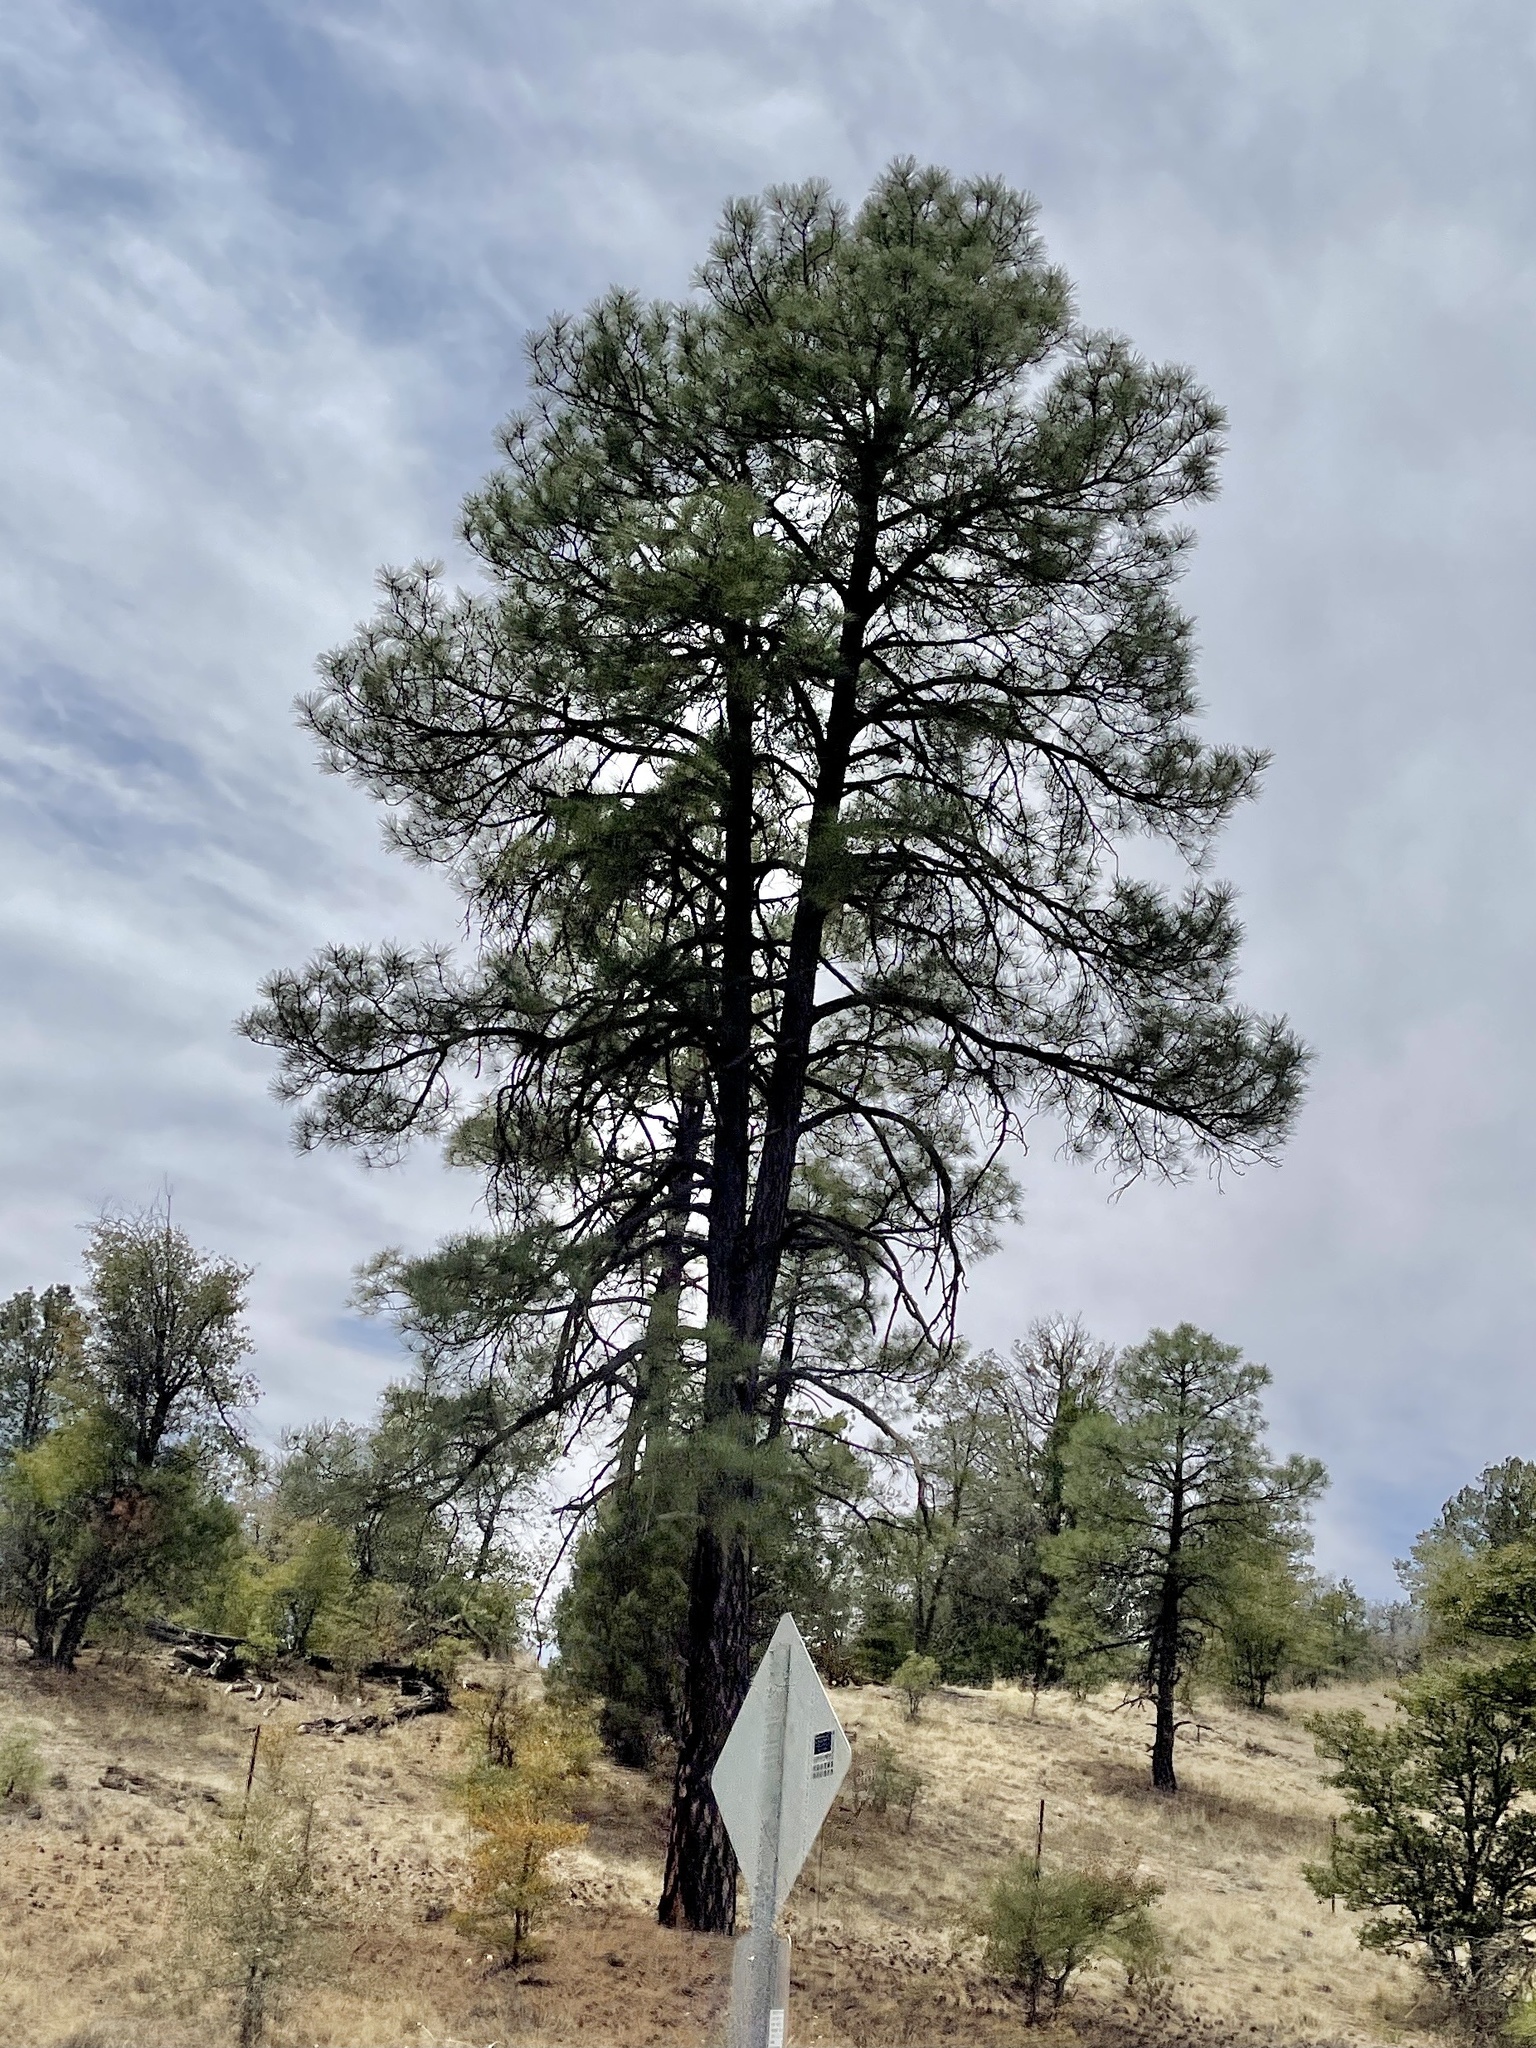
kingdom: Plantae
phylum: Tracheophyta
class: Pinopsida
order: Pinales
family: Pinaceae
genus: Pinus
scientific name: Pinus ponderosa
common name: Western yellow-pine
